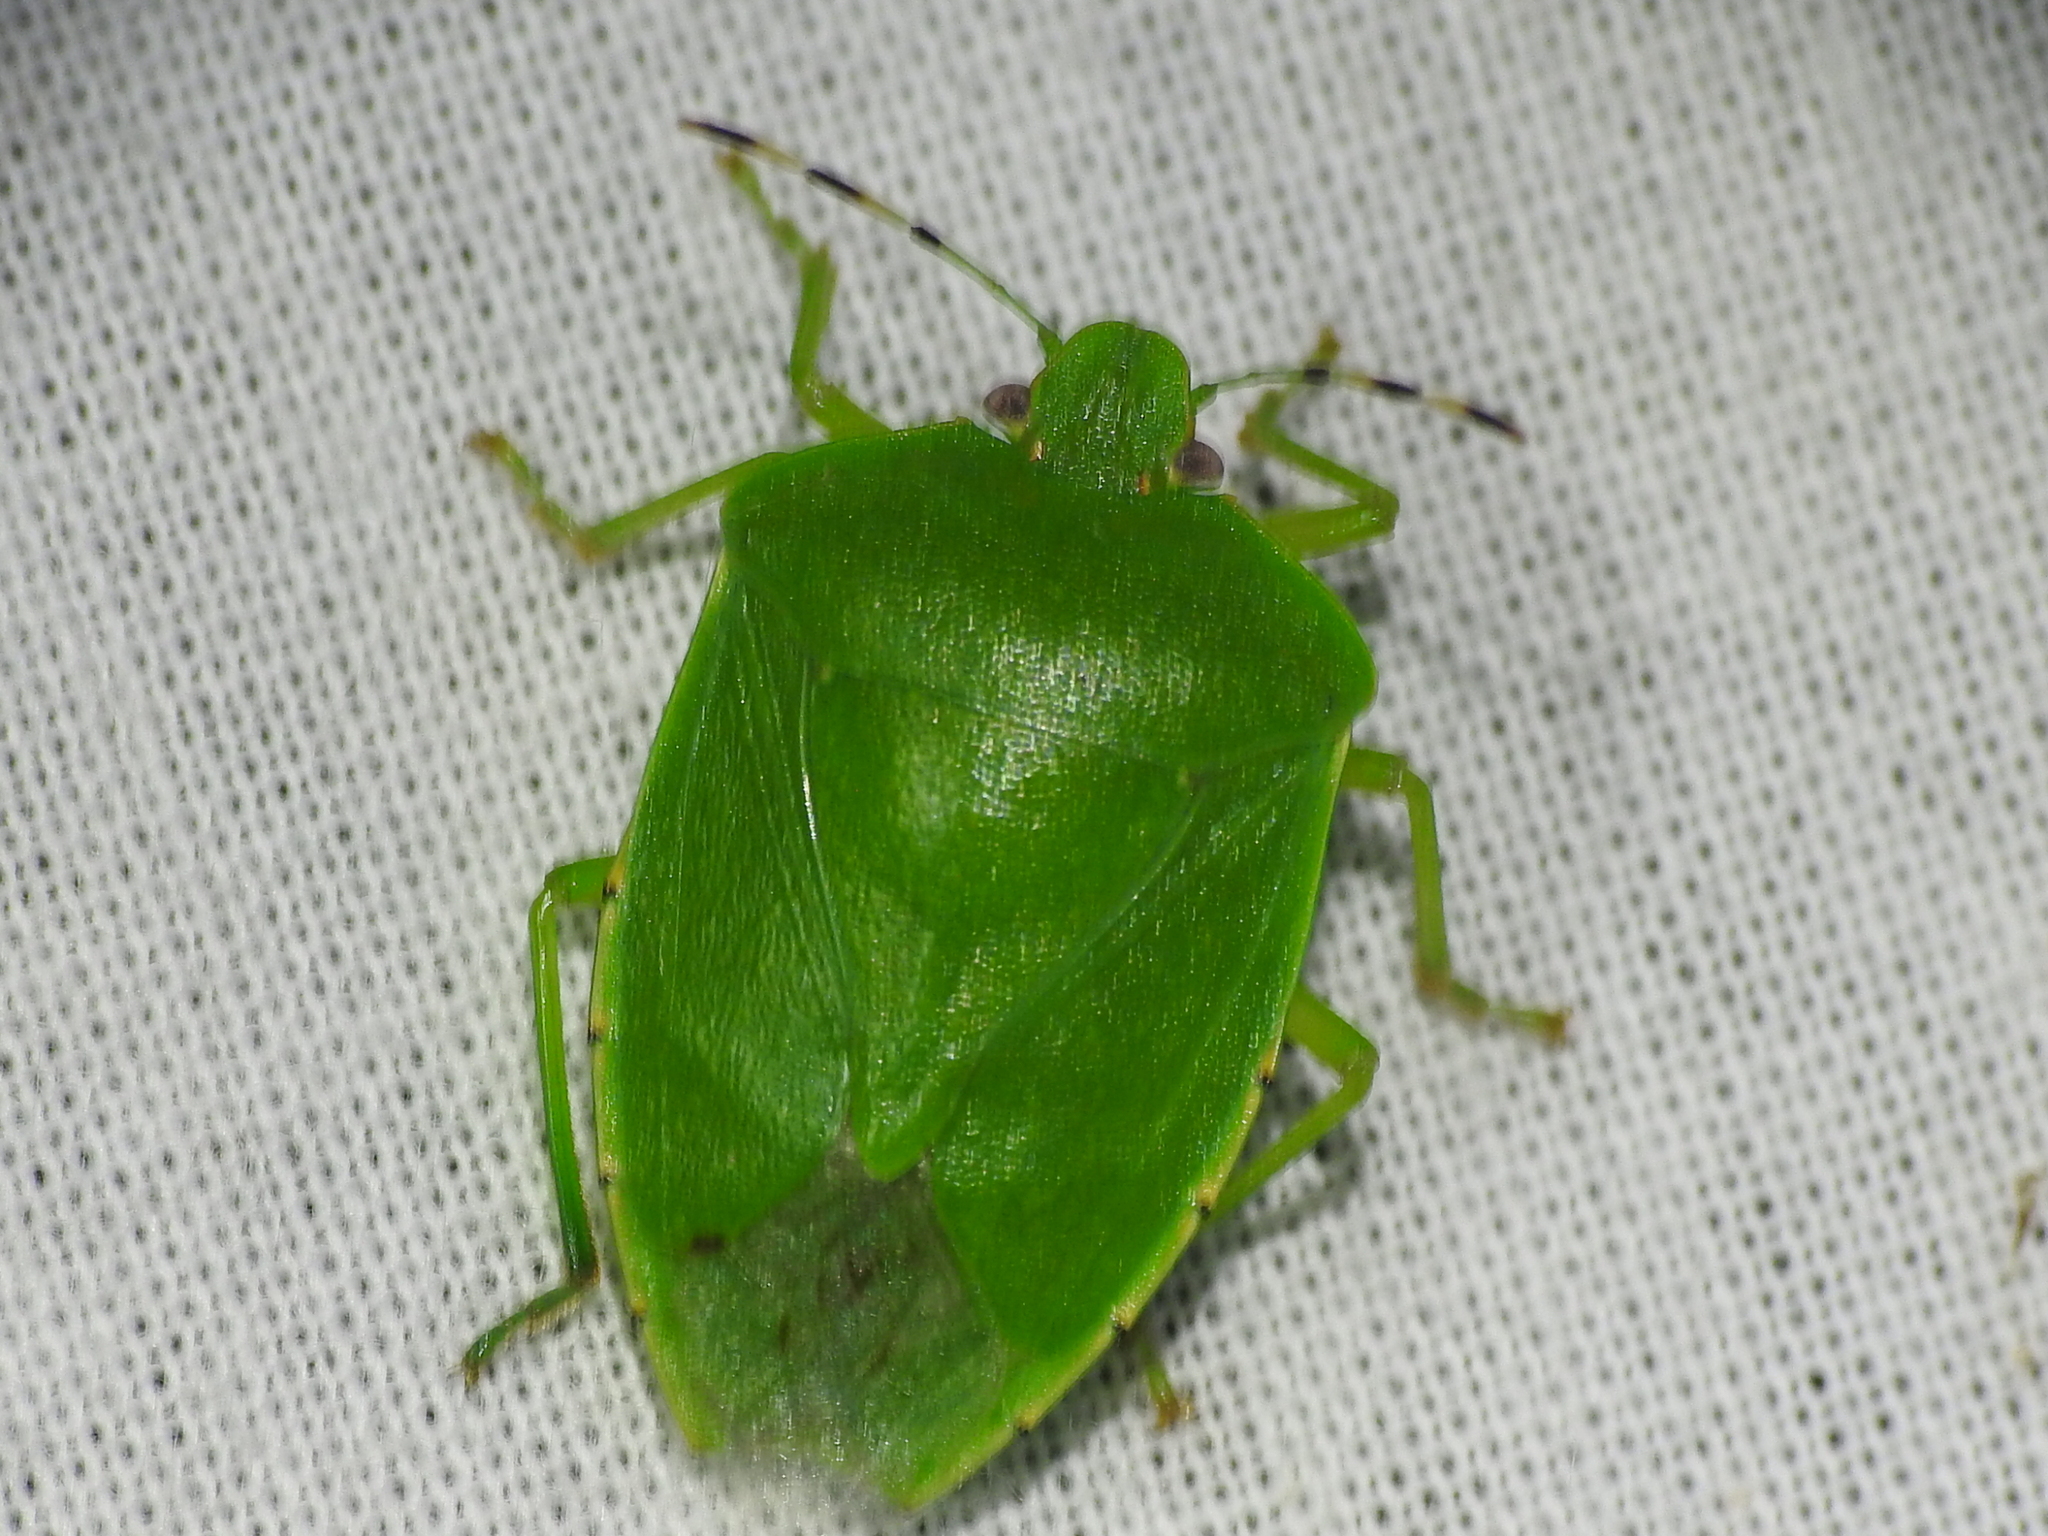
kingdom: Animalia
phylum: Arthropoda
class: Insecta
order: Hemiptera
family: Pentatomidae
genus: Chinavia
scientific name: Chinavia hilaris
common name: Green stink bug
